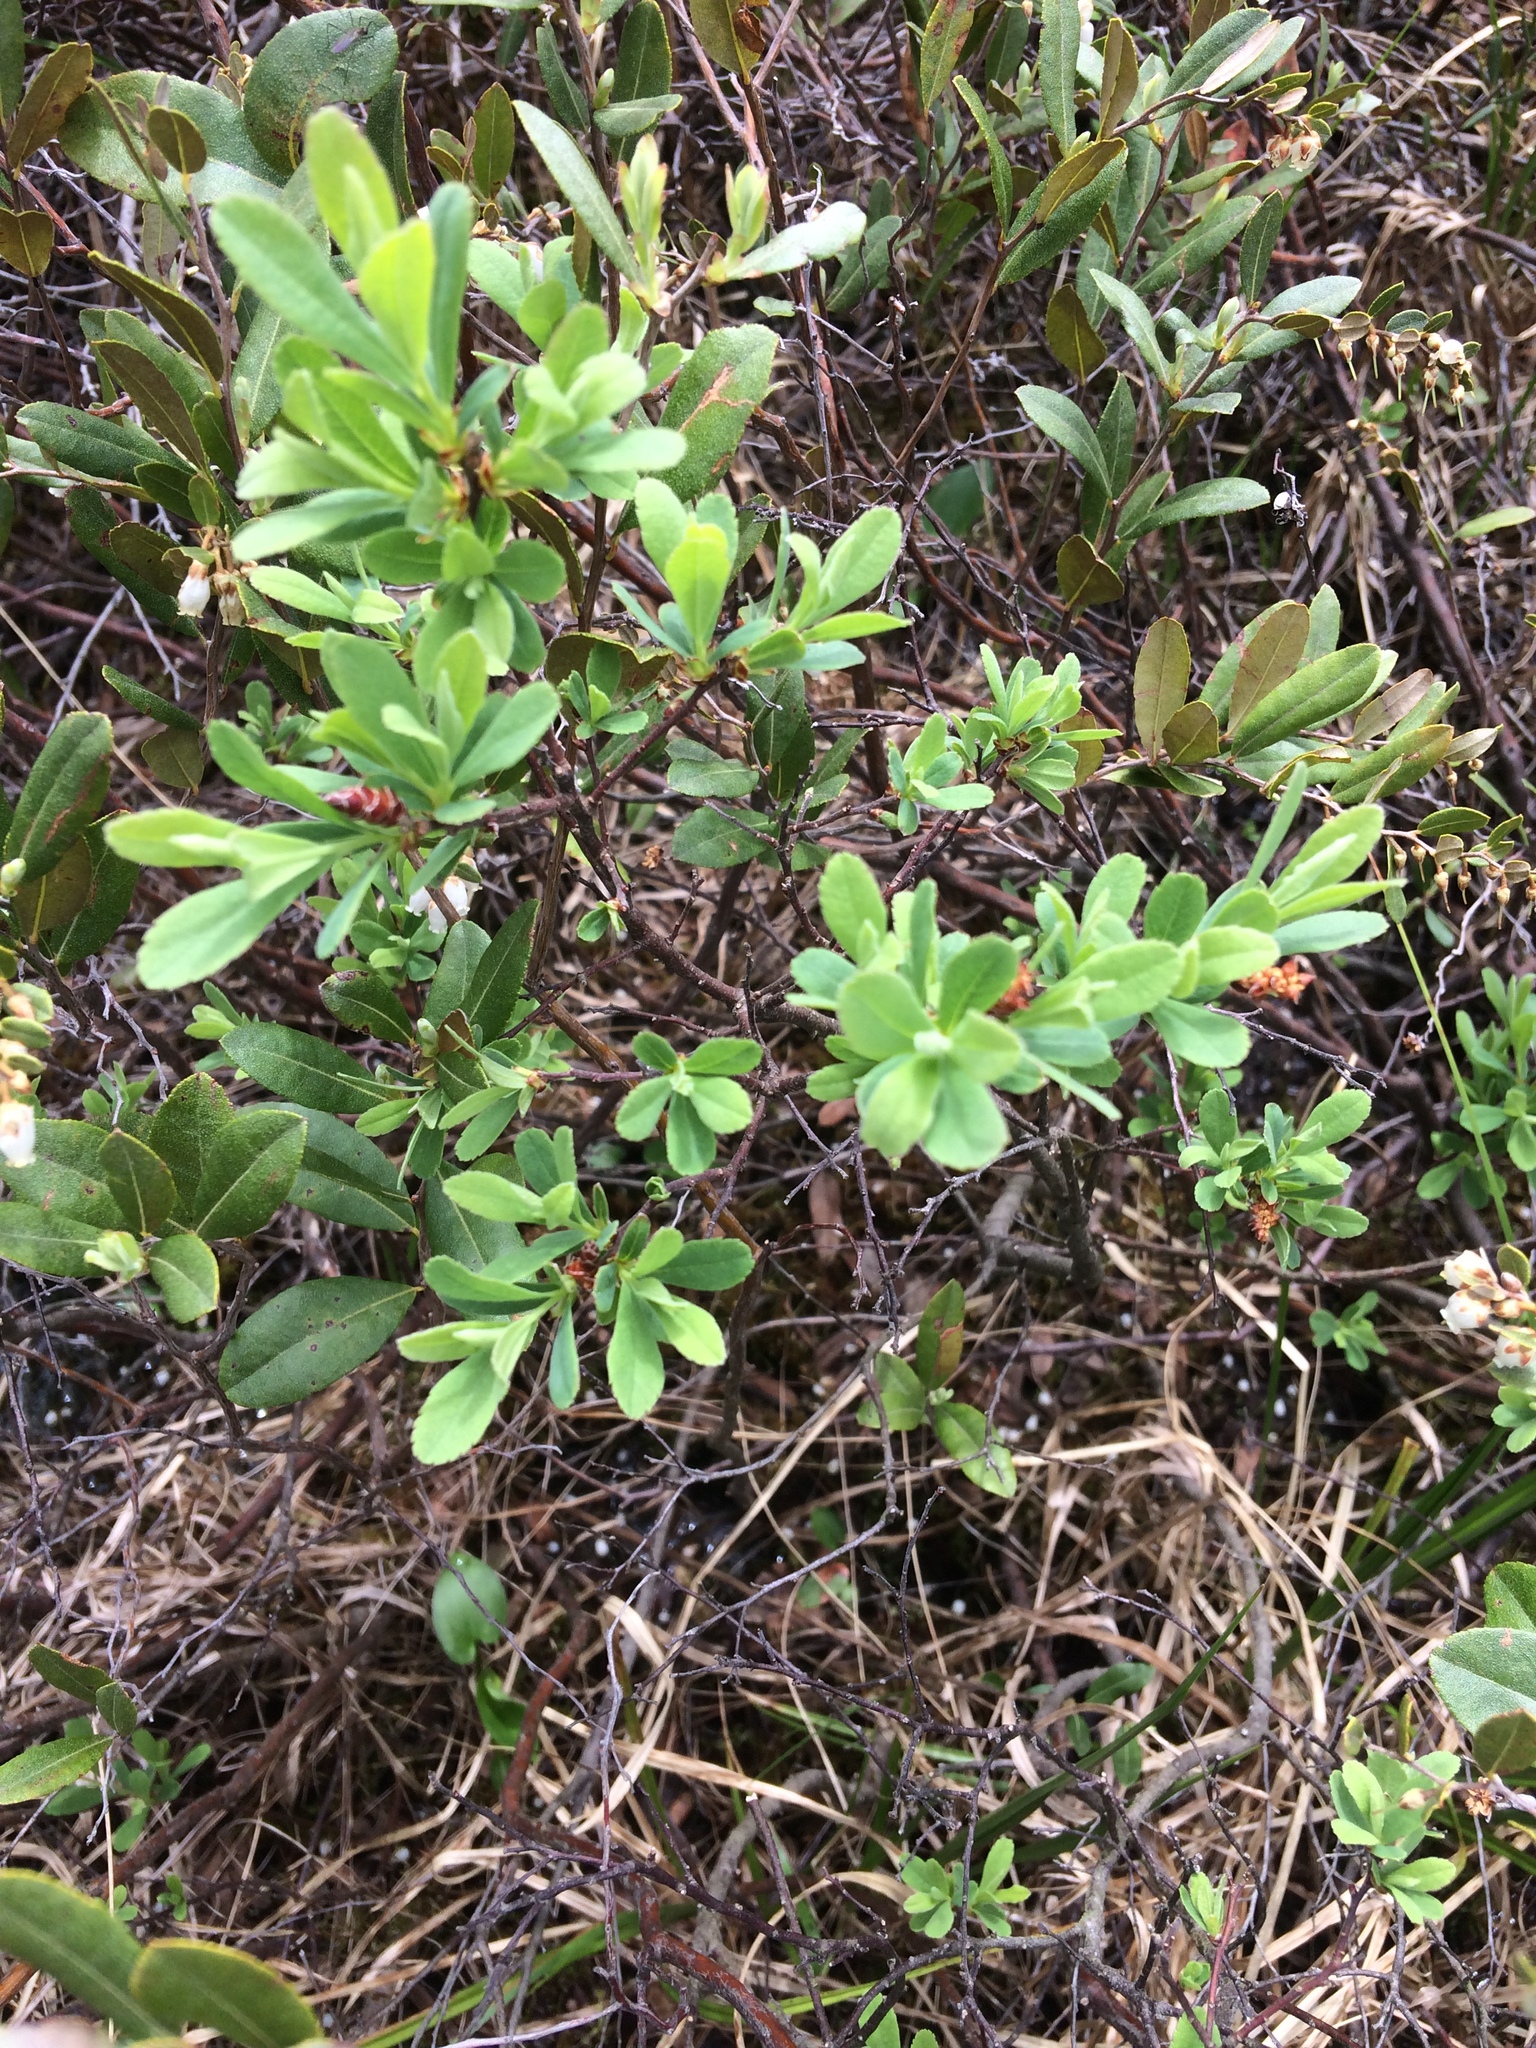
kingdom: Plantae
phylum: Tracheophyta
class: Magnoliopsida
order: Fagales
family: Myricaceae
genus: Myrica
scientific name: Myrica gale
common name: Sweet gale
